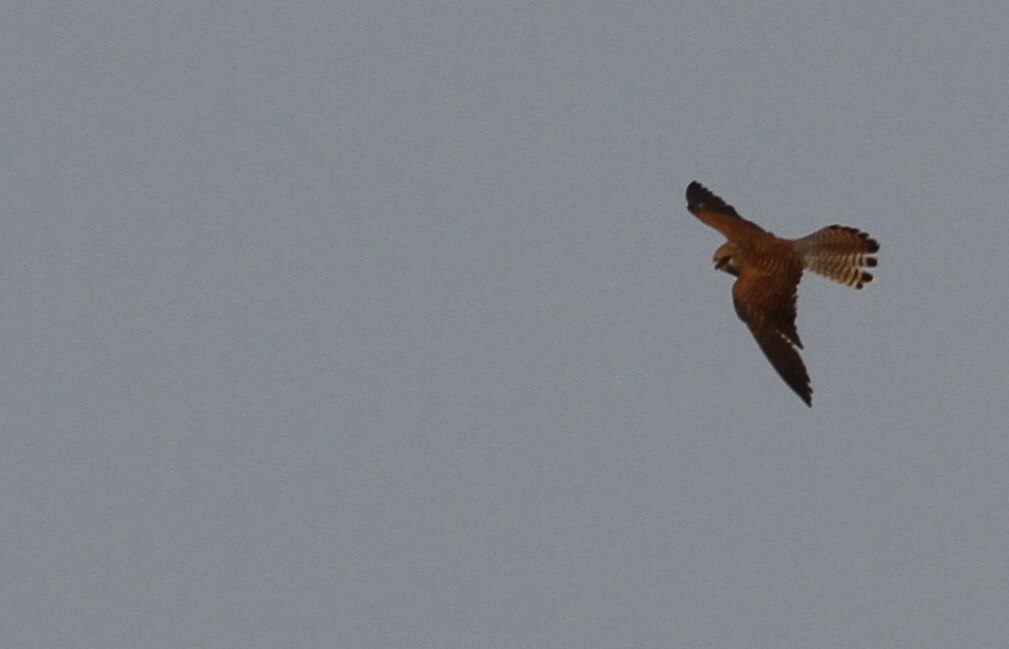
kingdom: Animalia
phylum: Chordata
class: Aves
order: Falconiformes
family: Falconidae
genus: Falco
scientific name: Falco tinnunculus
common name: Common kestrel
